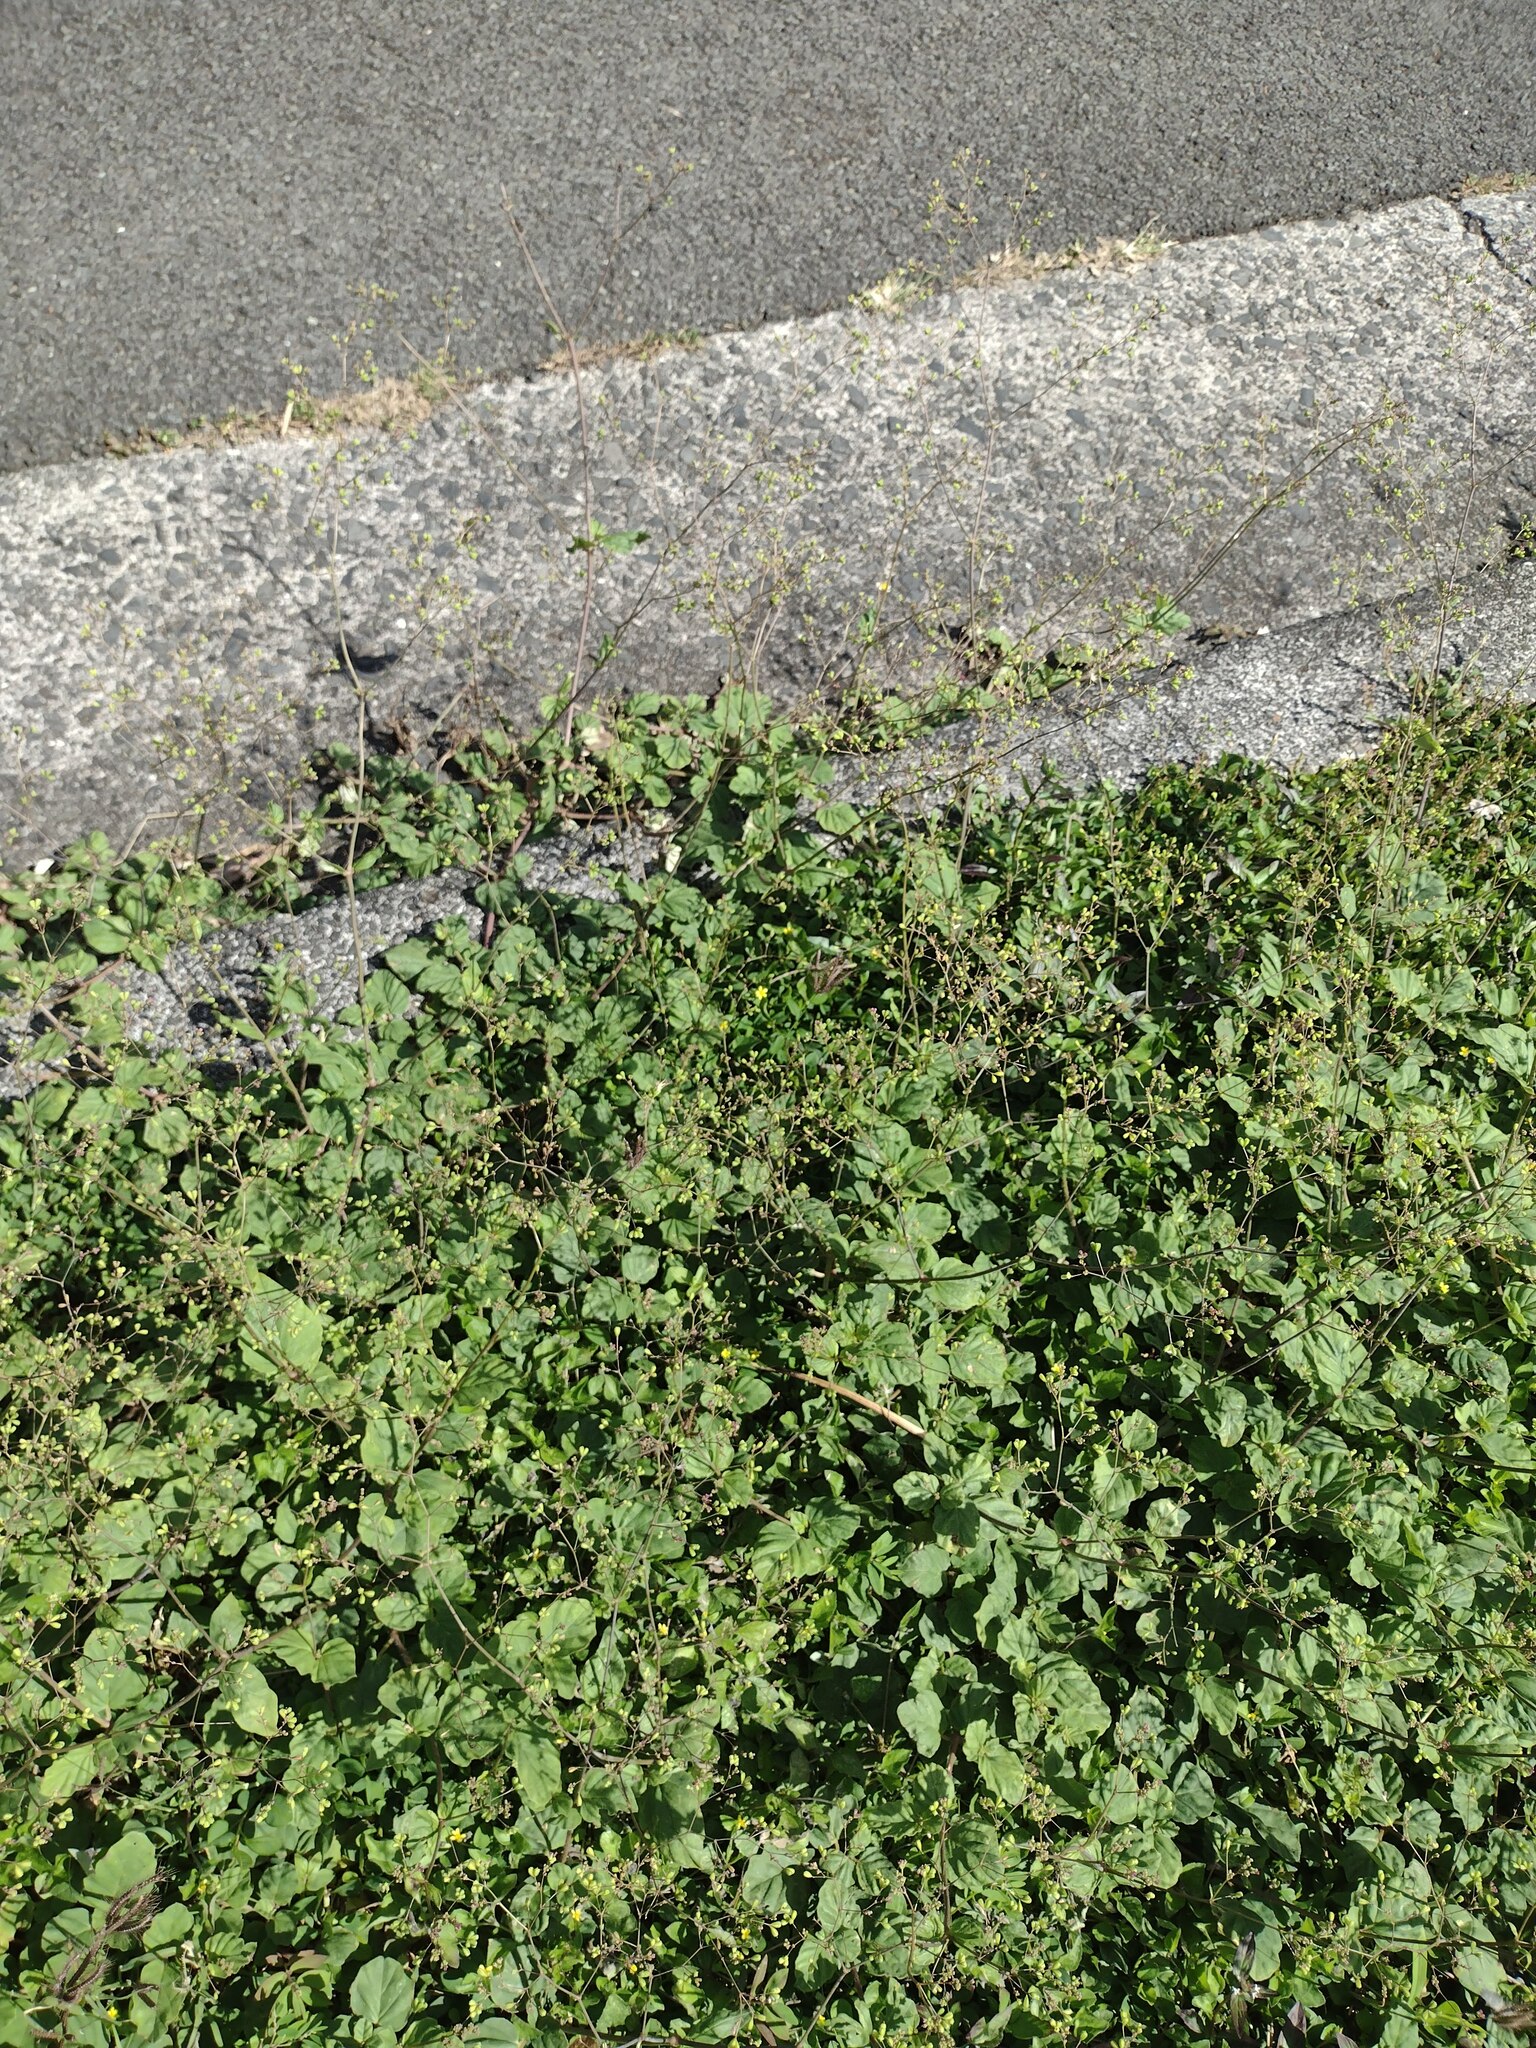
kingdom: Plantae
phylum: Tracheophyta
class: Magnoliopsida
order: Caryophyllales
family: Nyctaginaceae
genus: Boerhavia
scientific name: Boerhavia diffusa
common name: Red spiderling
